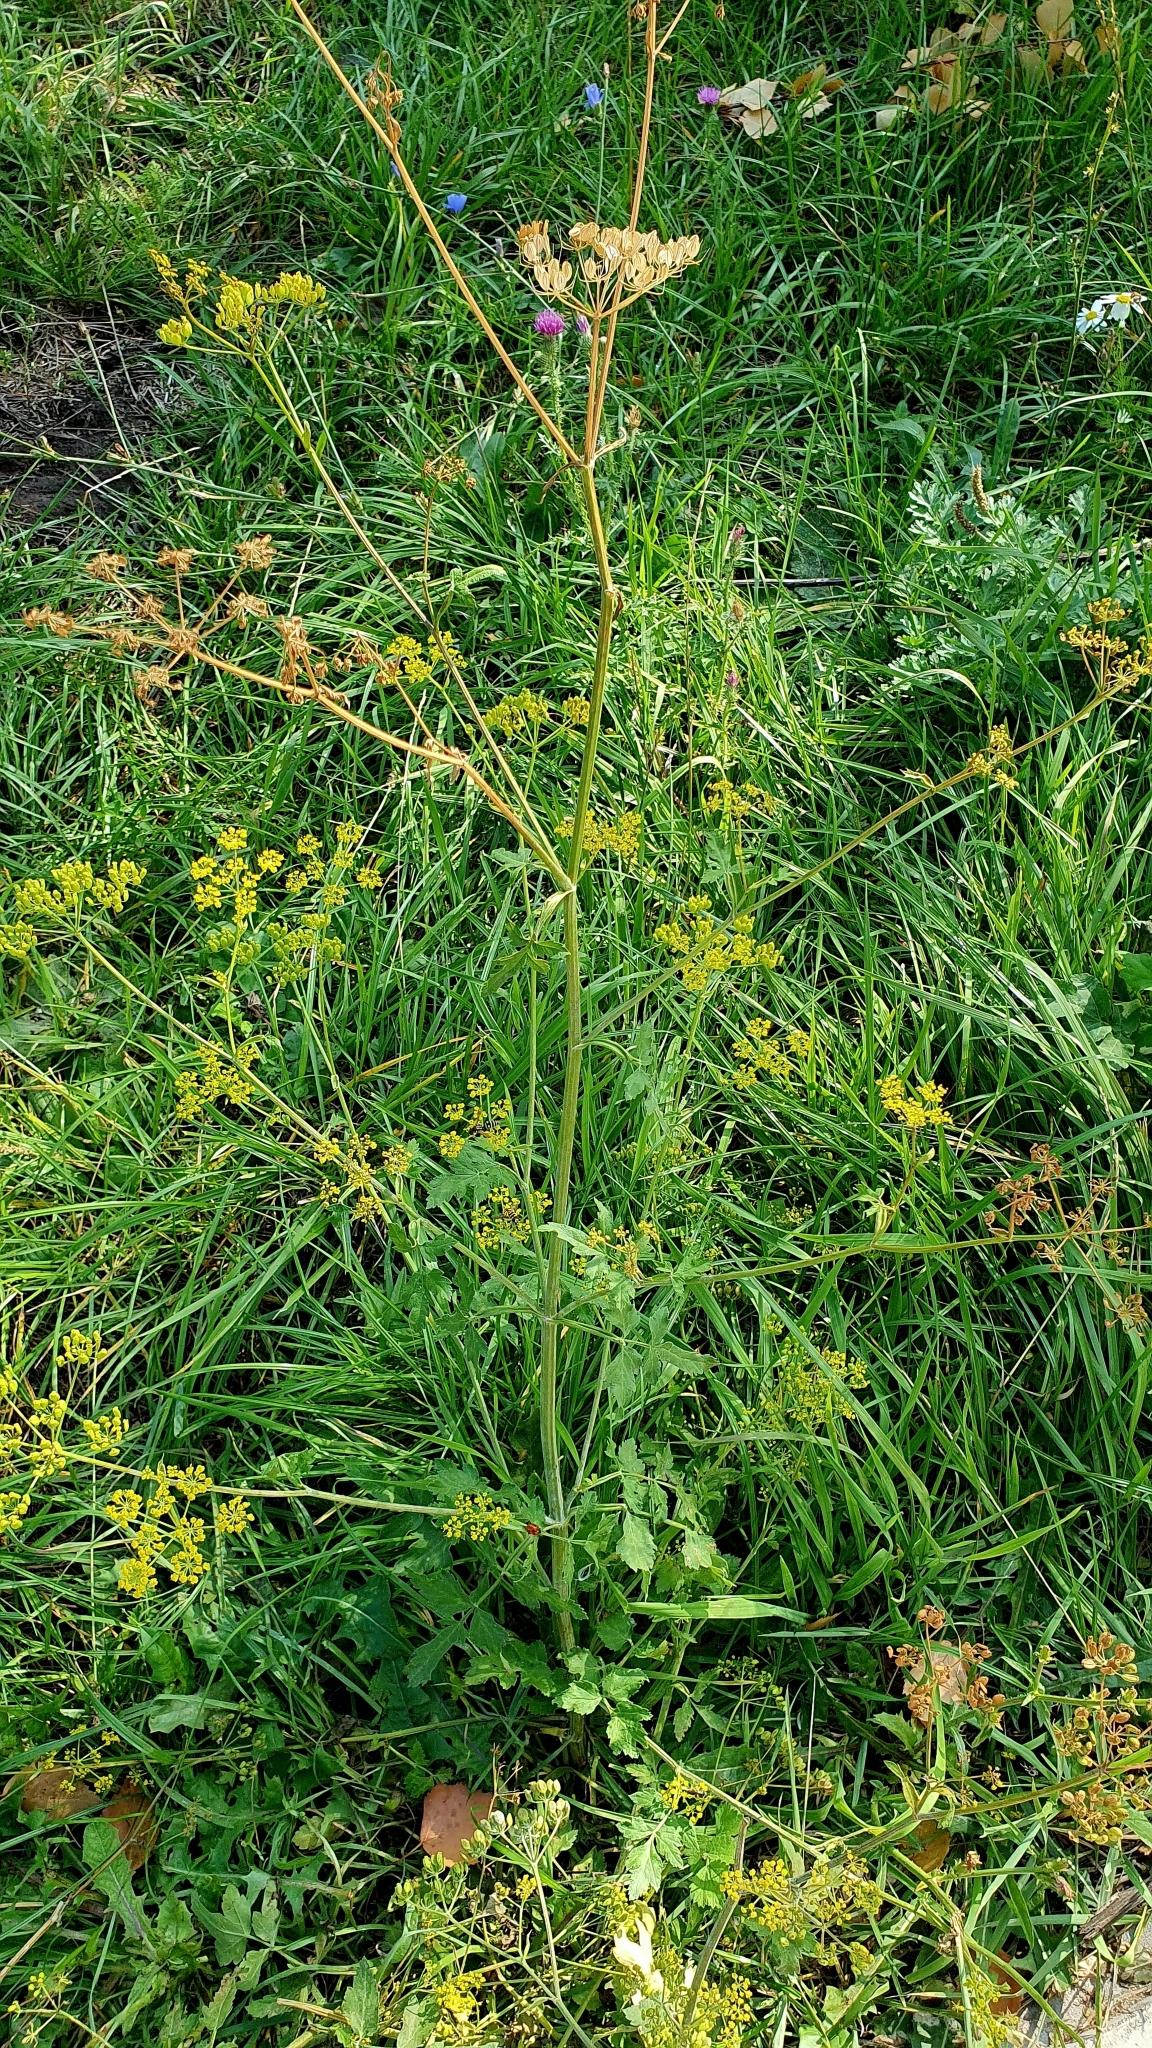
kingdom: Plantae
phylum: Tracheophyta
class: Magnoliopsida
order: Apiales
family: Apiaceae
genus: Pastinaca
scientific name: Pastinaca sativa
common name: Wild parsnip
